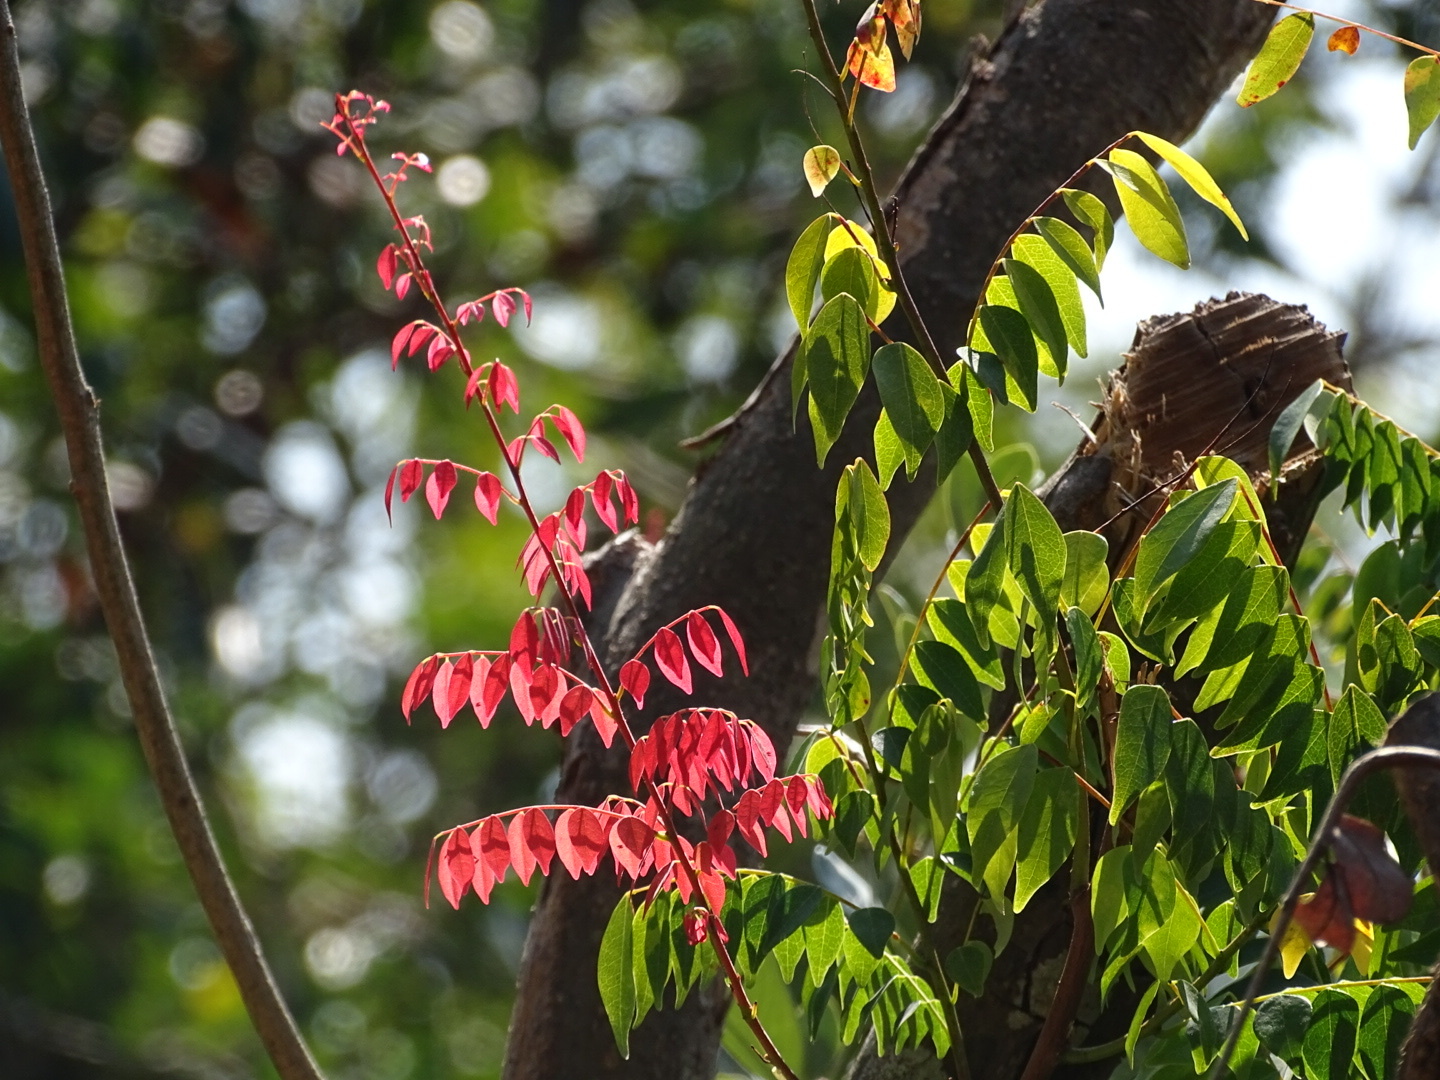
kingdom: Plantae
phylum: Tracheophyta
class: Magnoliopsida
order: Oxalidales
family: Connaraceae
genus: Rourea
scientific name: Rourea microphylla
